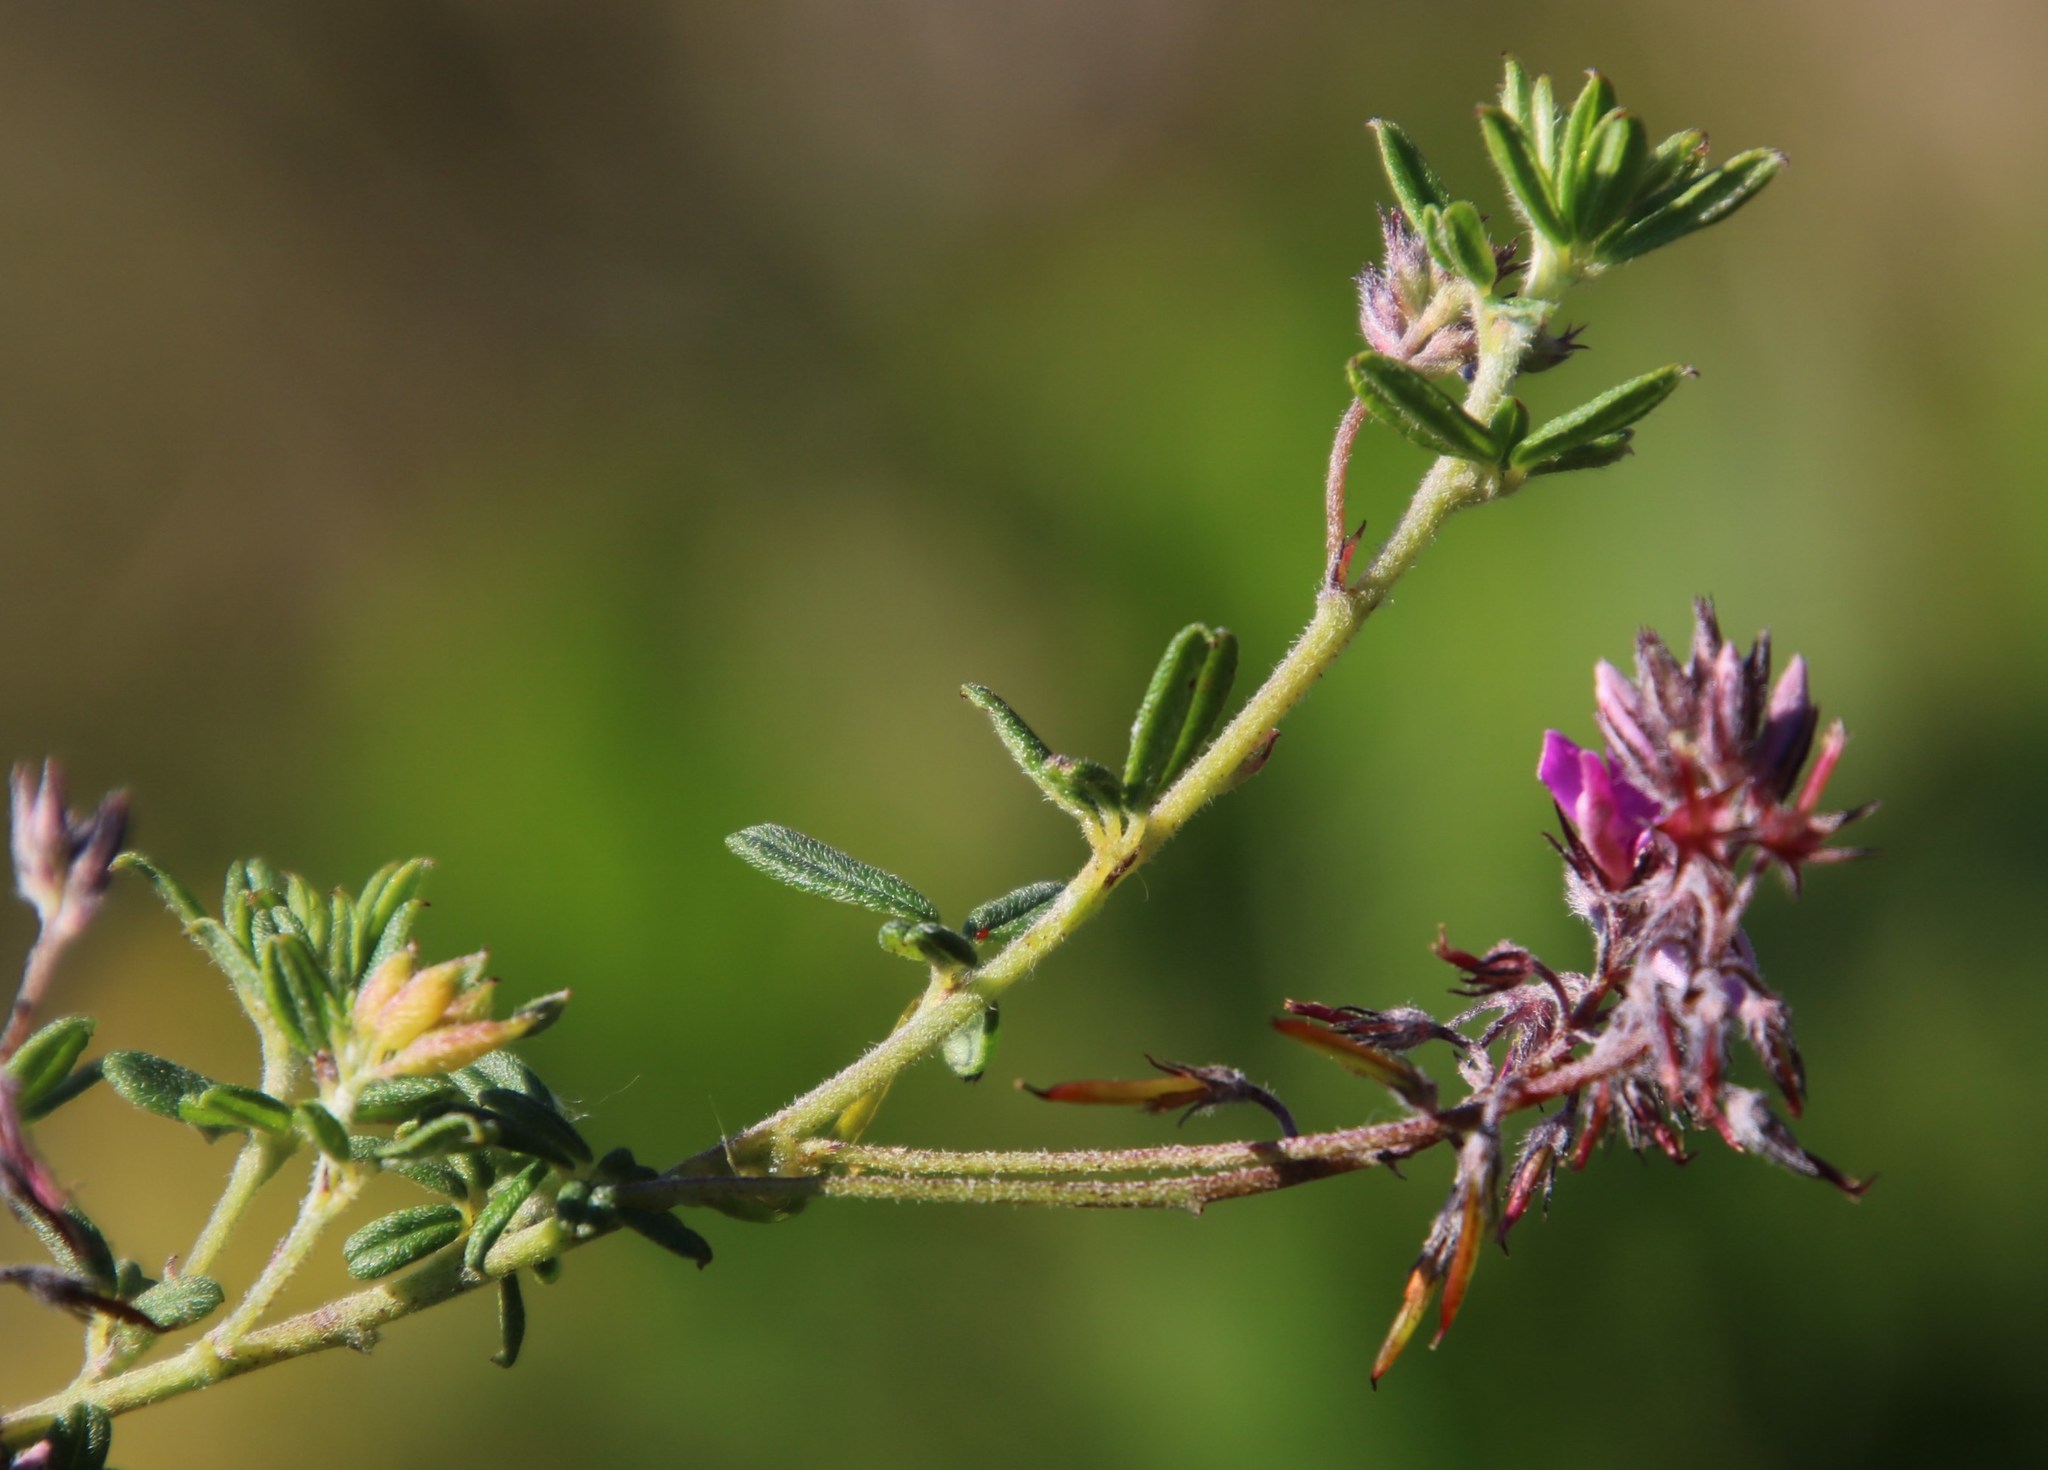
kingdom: Plantae
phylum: Tracheophyta
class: Magnoliopsida
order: Fabales
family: Fabaceae
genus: Indigofera
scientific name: Indigofera filiformis
